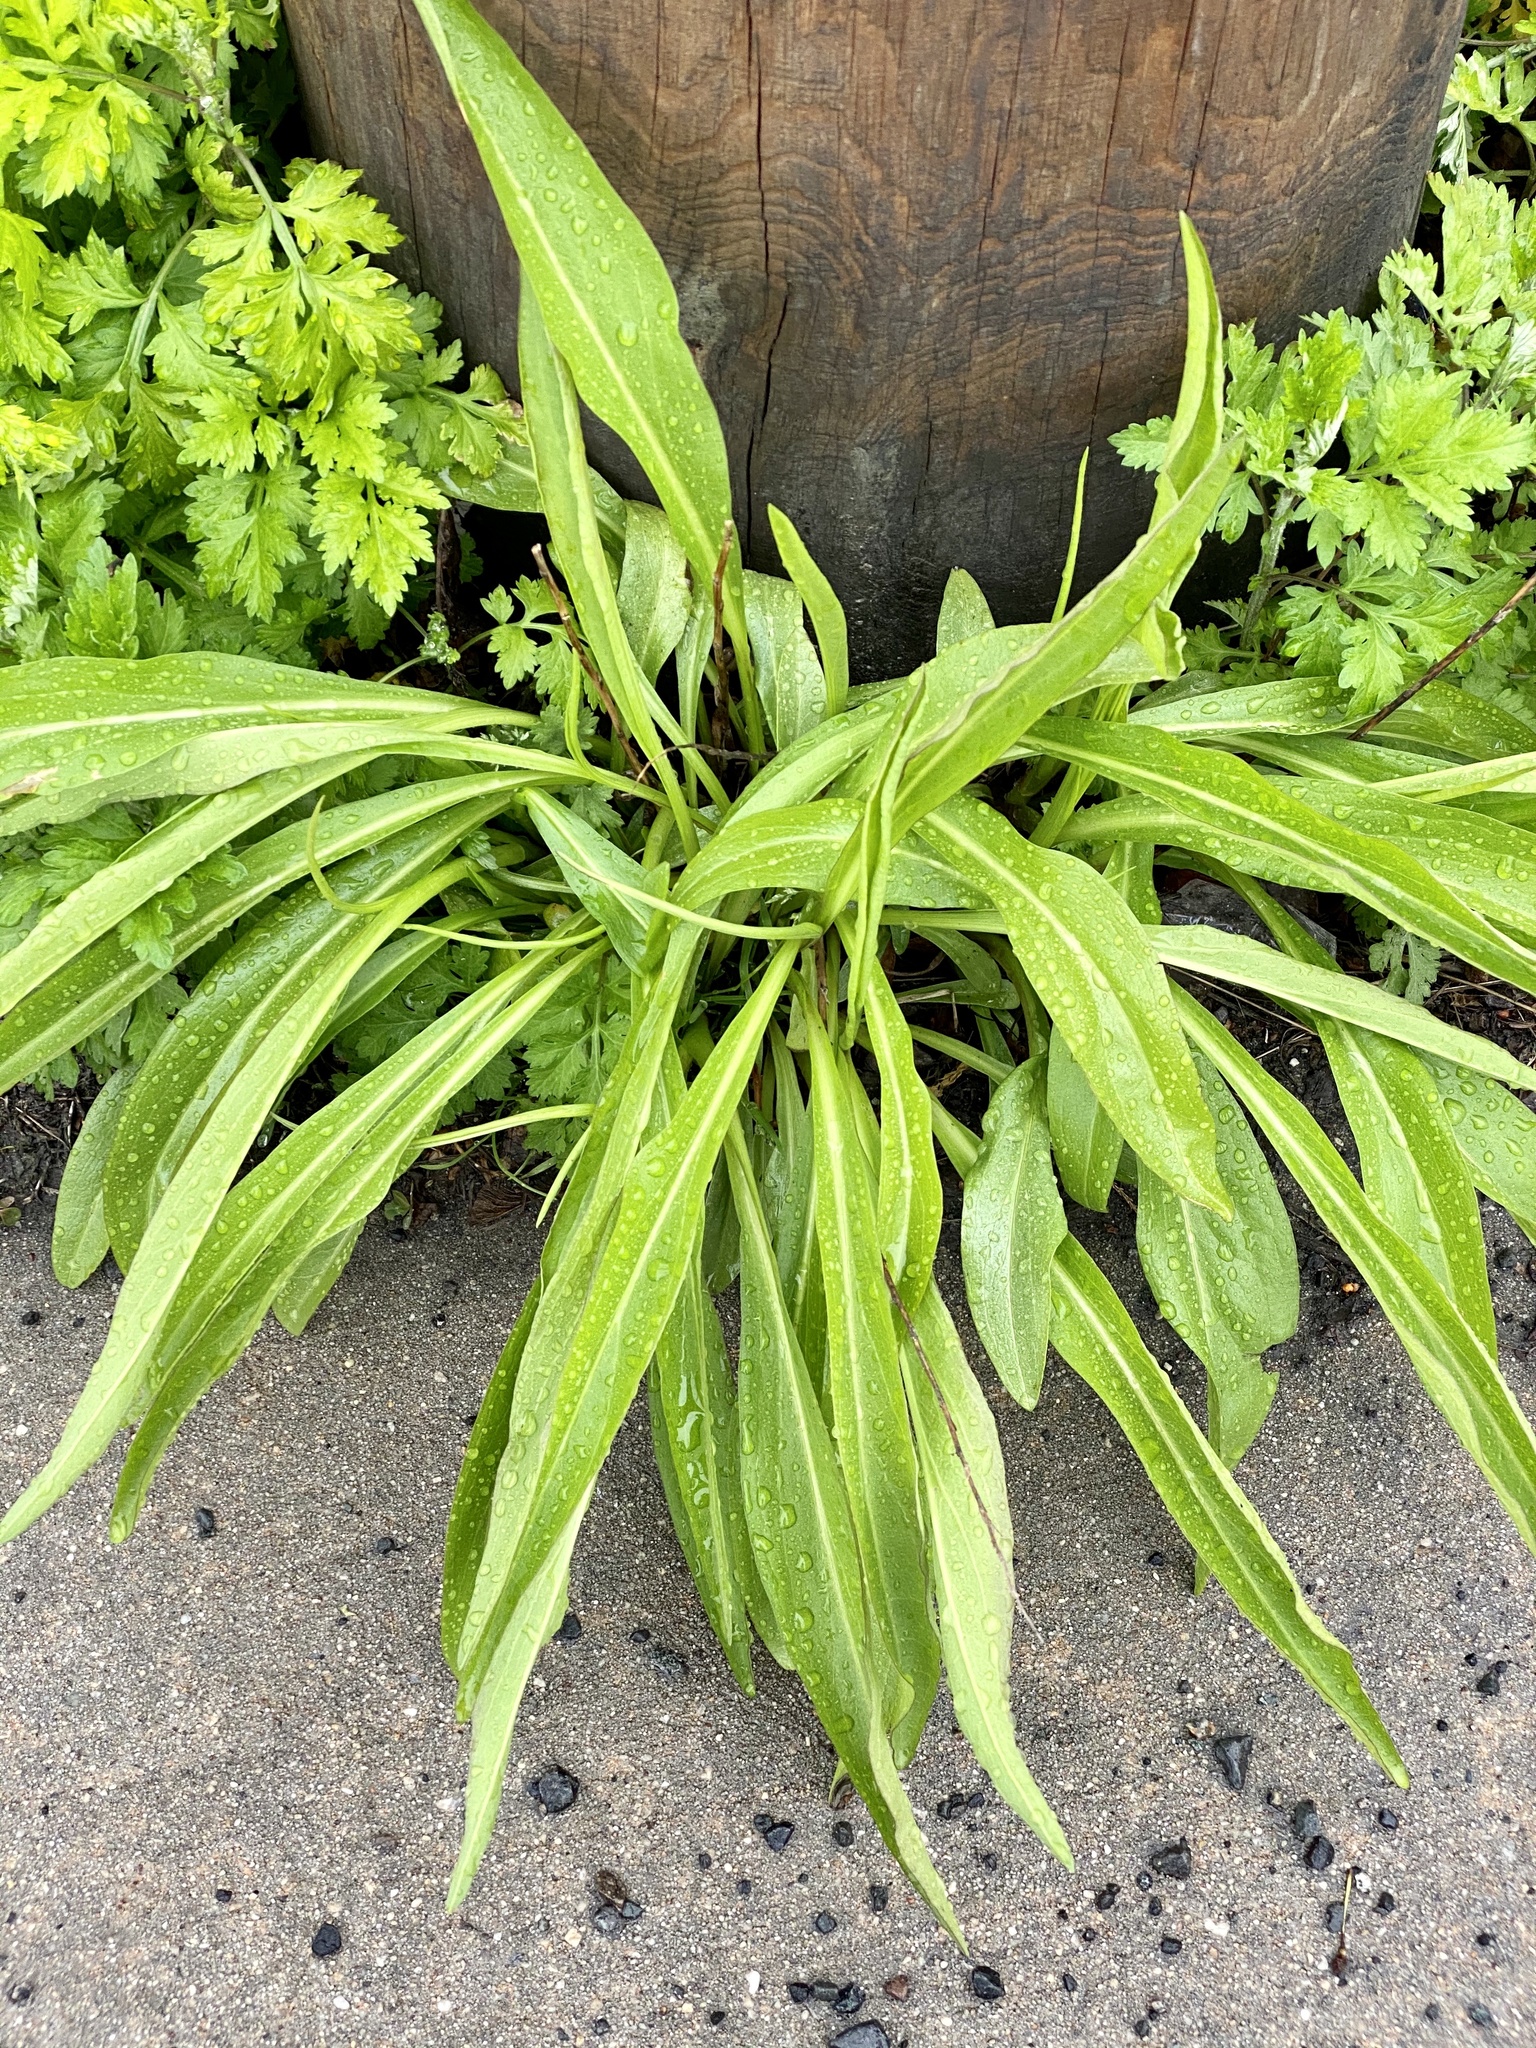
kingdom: Plantae
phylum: Tracheophyta
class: Magnoliopsida
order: Asterales
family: Asteraceae
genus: Solidago
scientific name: Solidago sempervirens
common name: Salt-marsh goldenrod
